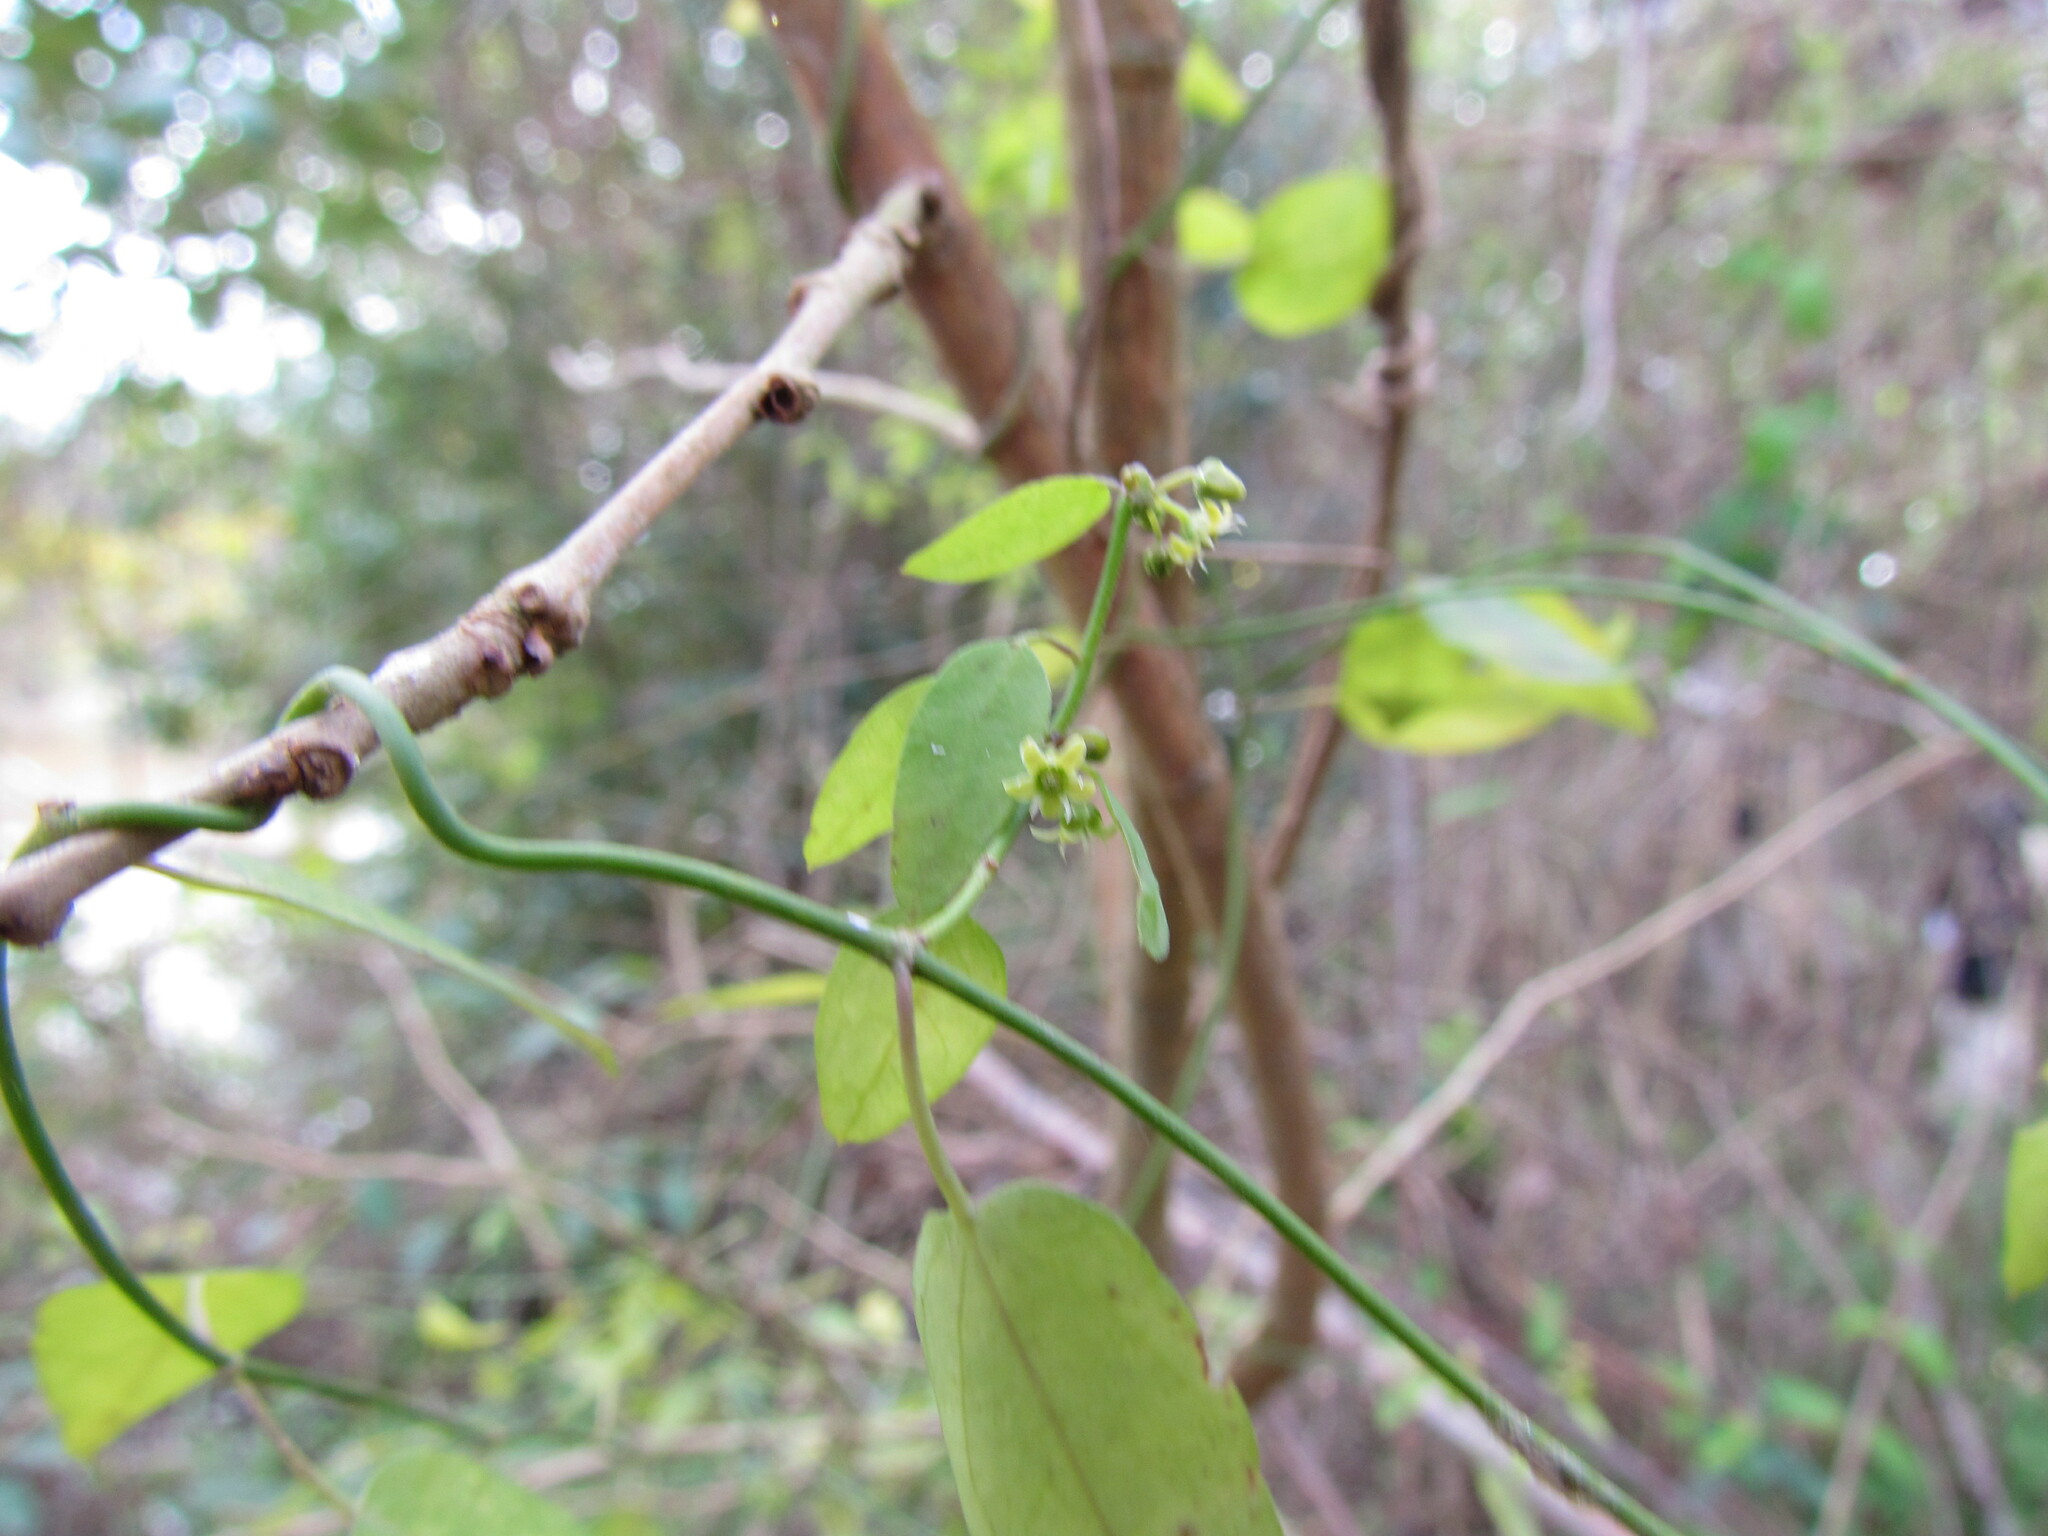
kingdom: Plantae
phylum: Tracheophyta
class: Magnoliopsida
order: Gentianales
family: Apocynaceae
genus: Orthosia
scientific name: Orthosia virgata
